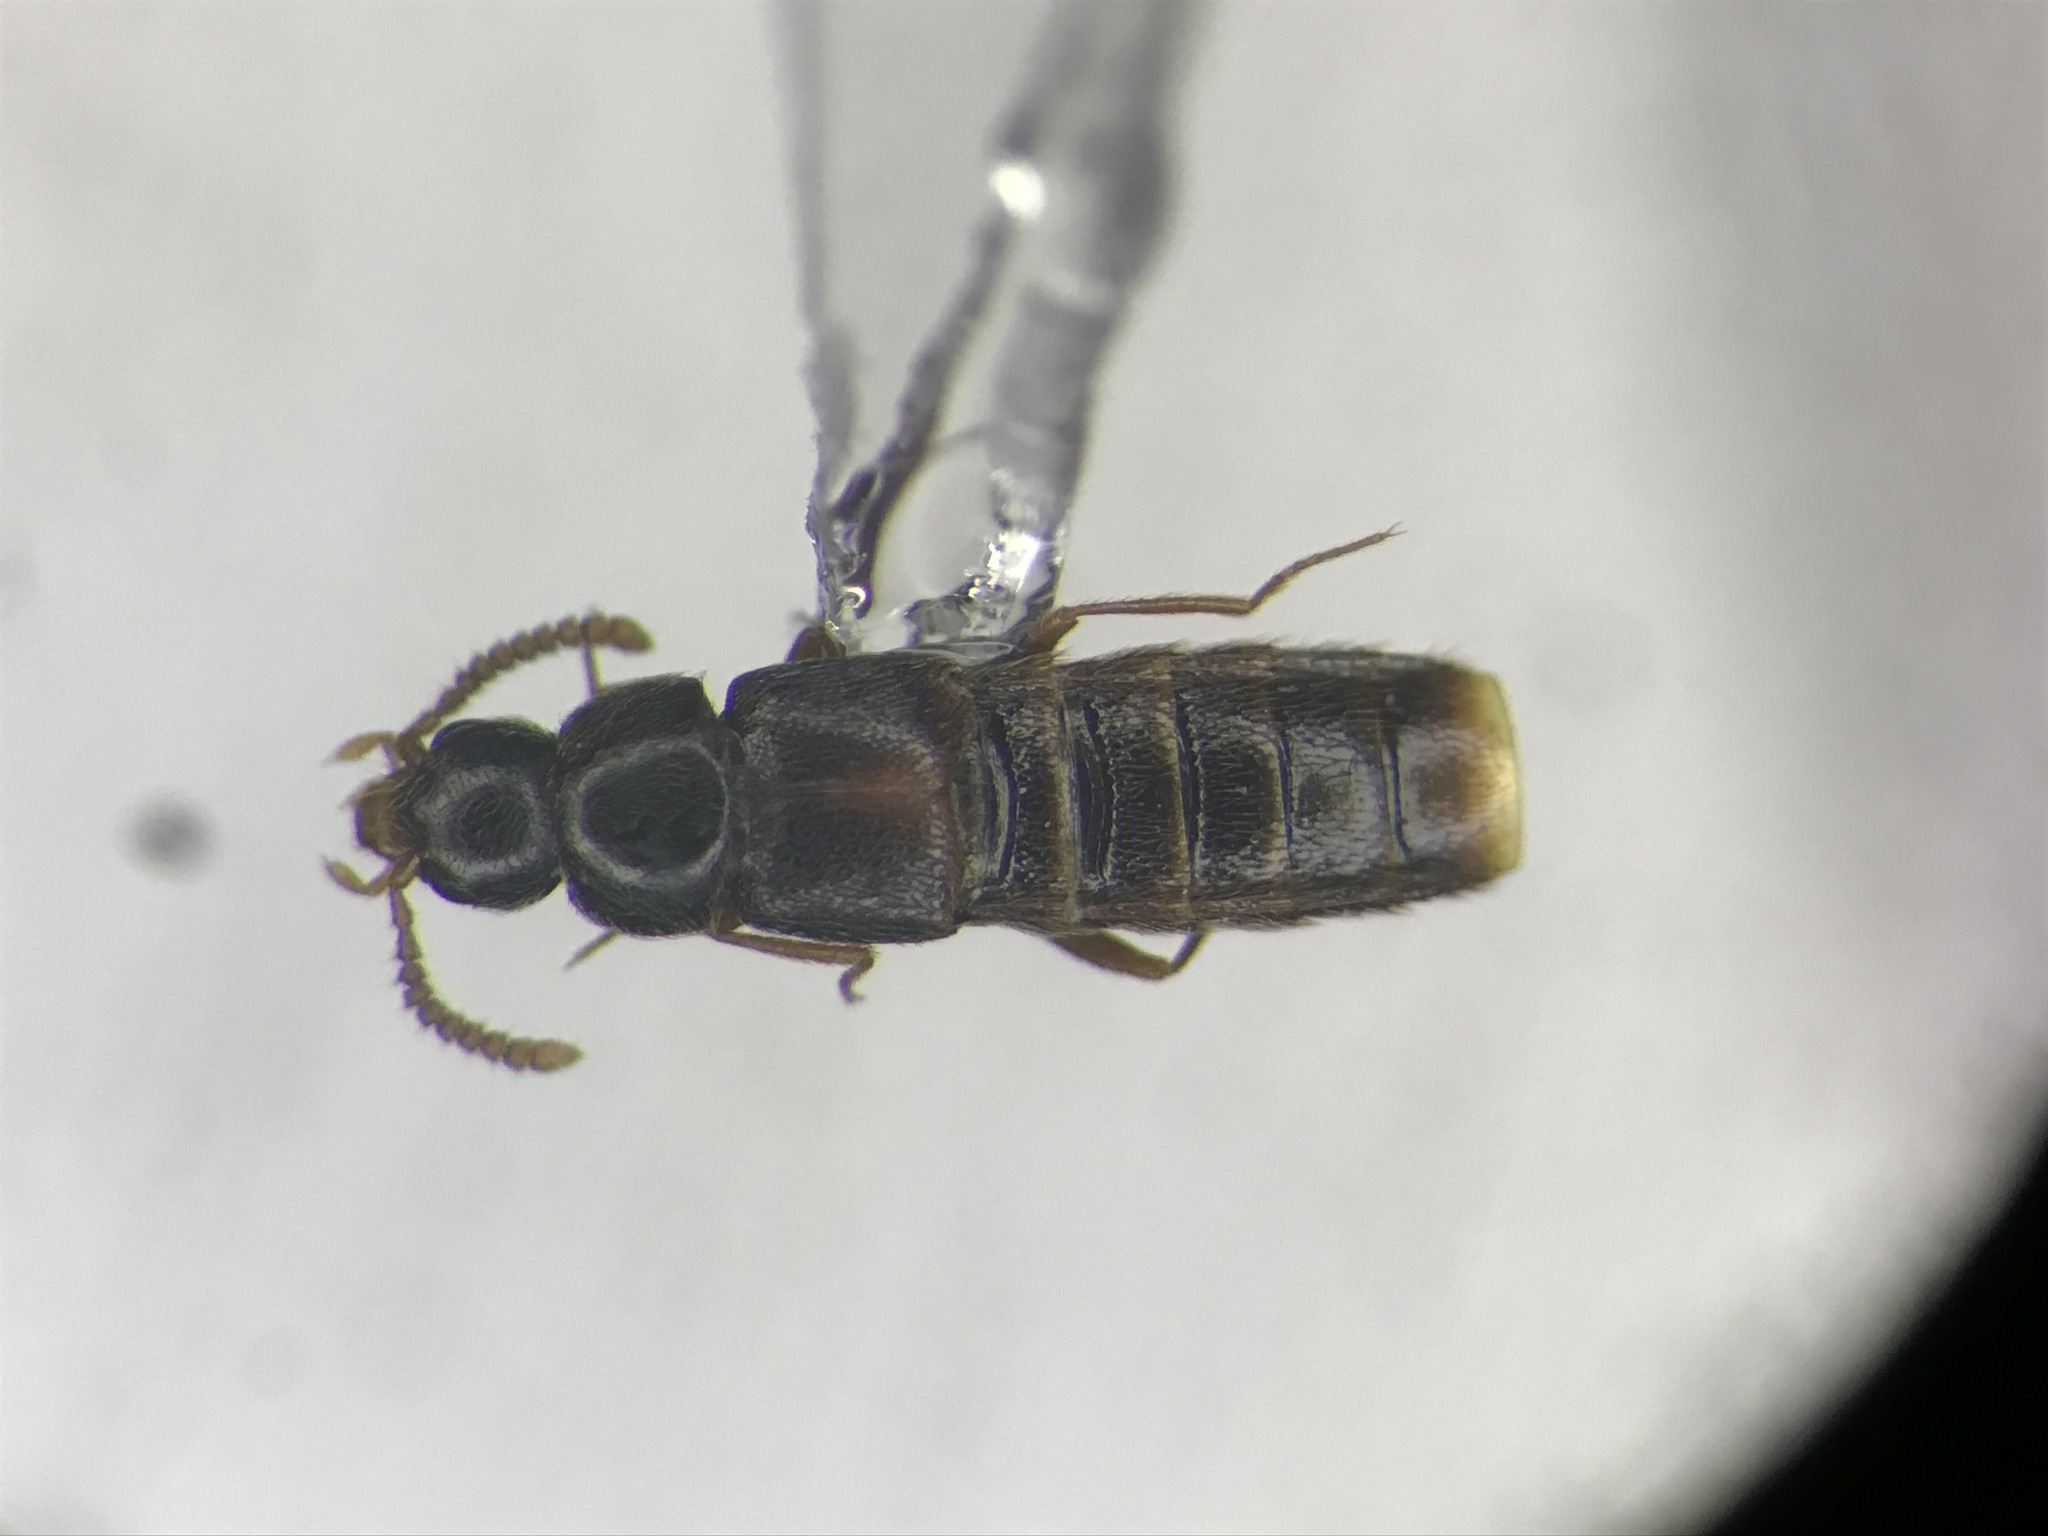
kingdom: Animalia
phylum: Arthropoda
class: Insecta
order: Coleoptera
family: Staphylinidae
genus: Crataraea
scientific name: Crataraea suturalis
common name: Rove beetle
